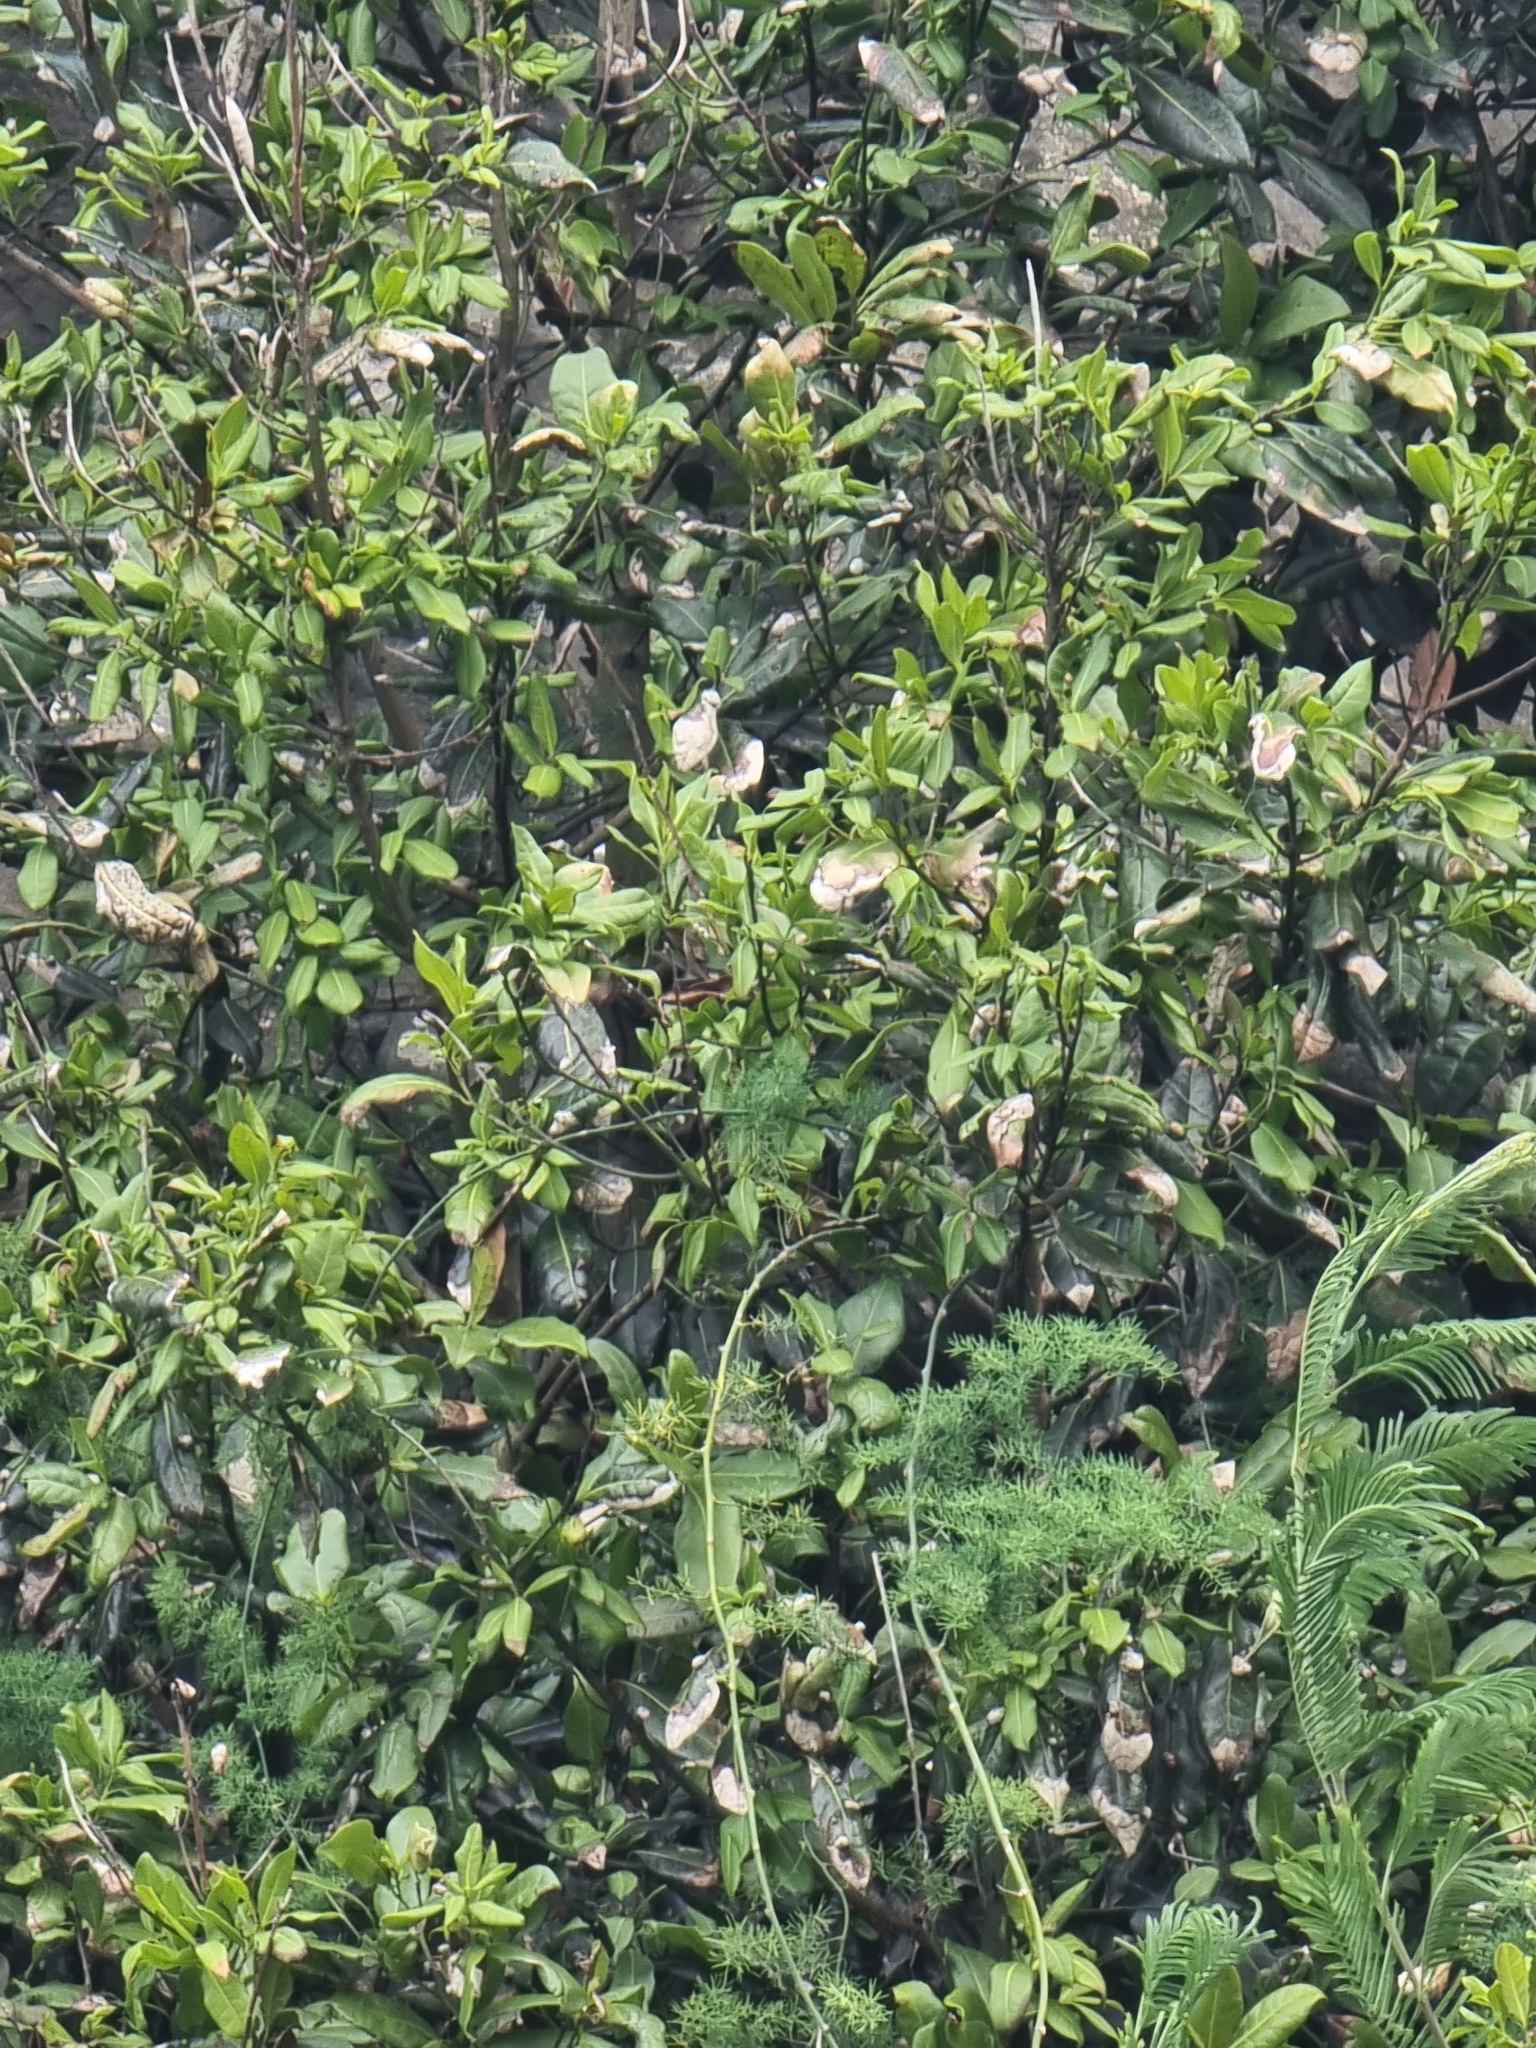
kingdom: Plantae
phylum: Tracheophyta
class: Magnoliopsida
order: Laurales
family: Lauraceae
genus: Apollonias
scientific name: Apollonias barbujana
